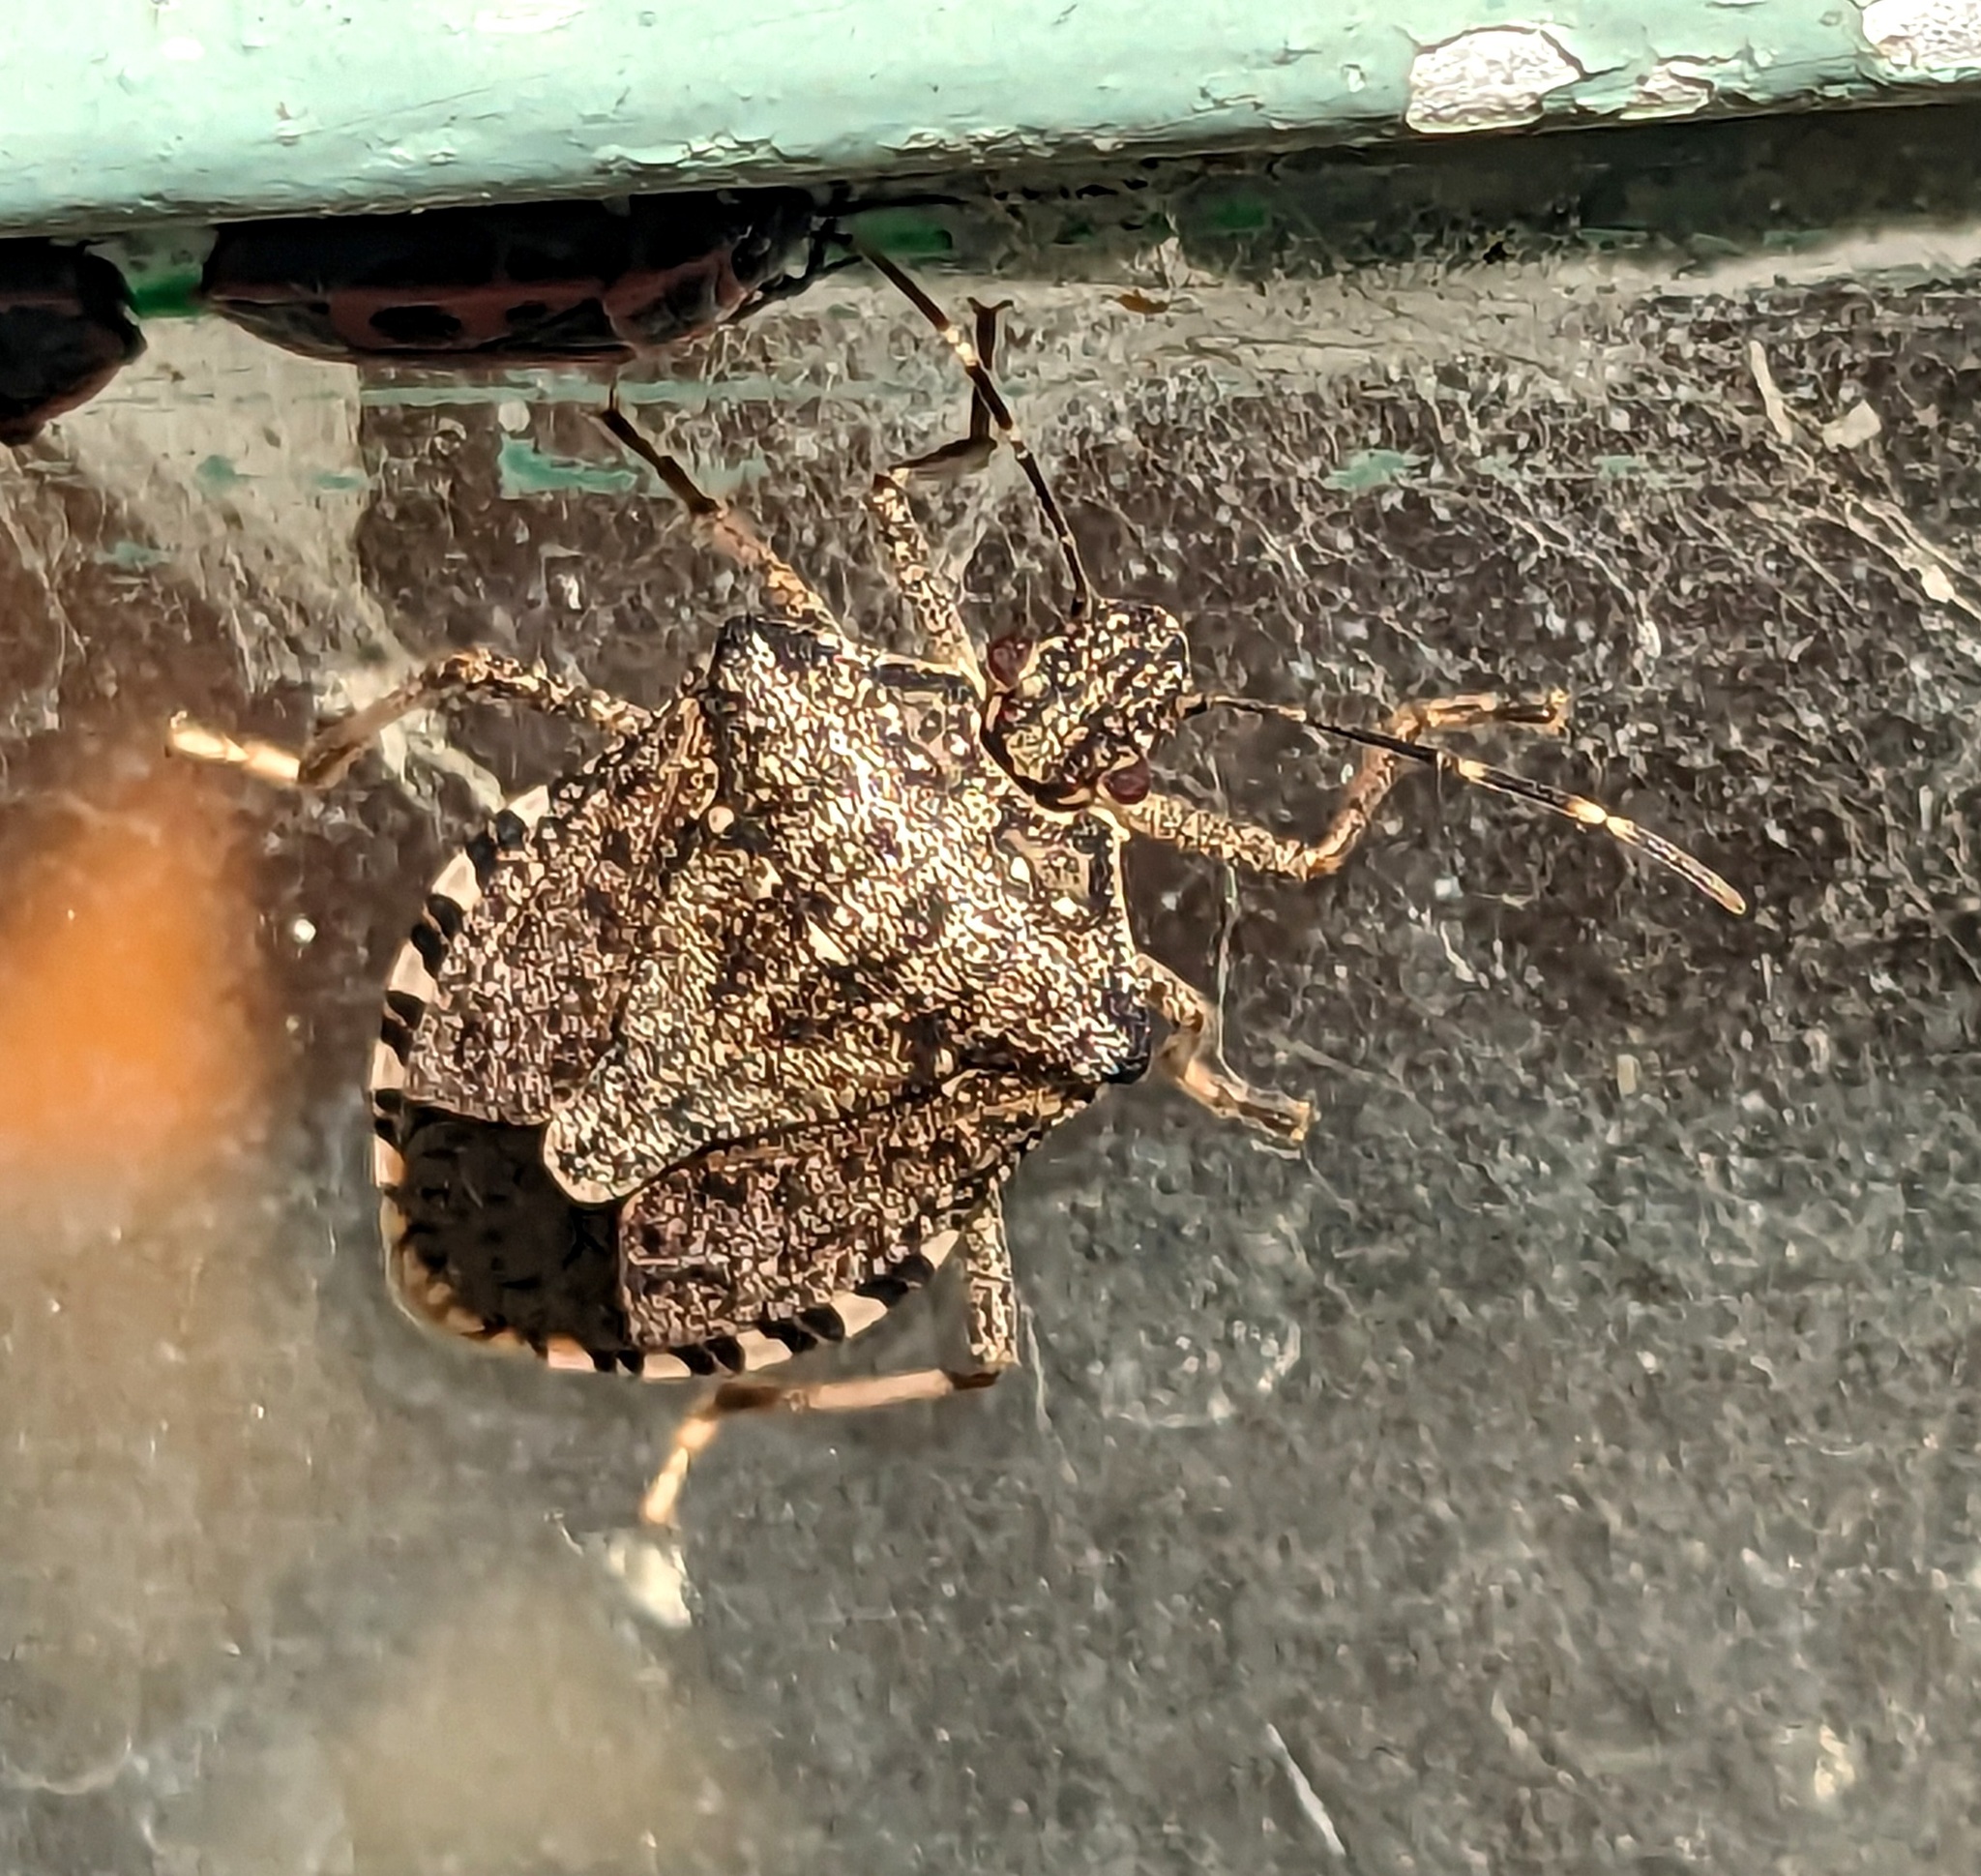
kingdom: Animalia
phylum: Arthropoda
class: Insecta
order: Hemiptera
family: Pentatomidae
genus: Halyomorpha
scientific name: Halyomorpha halys
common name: Brown marmorated stink bug
